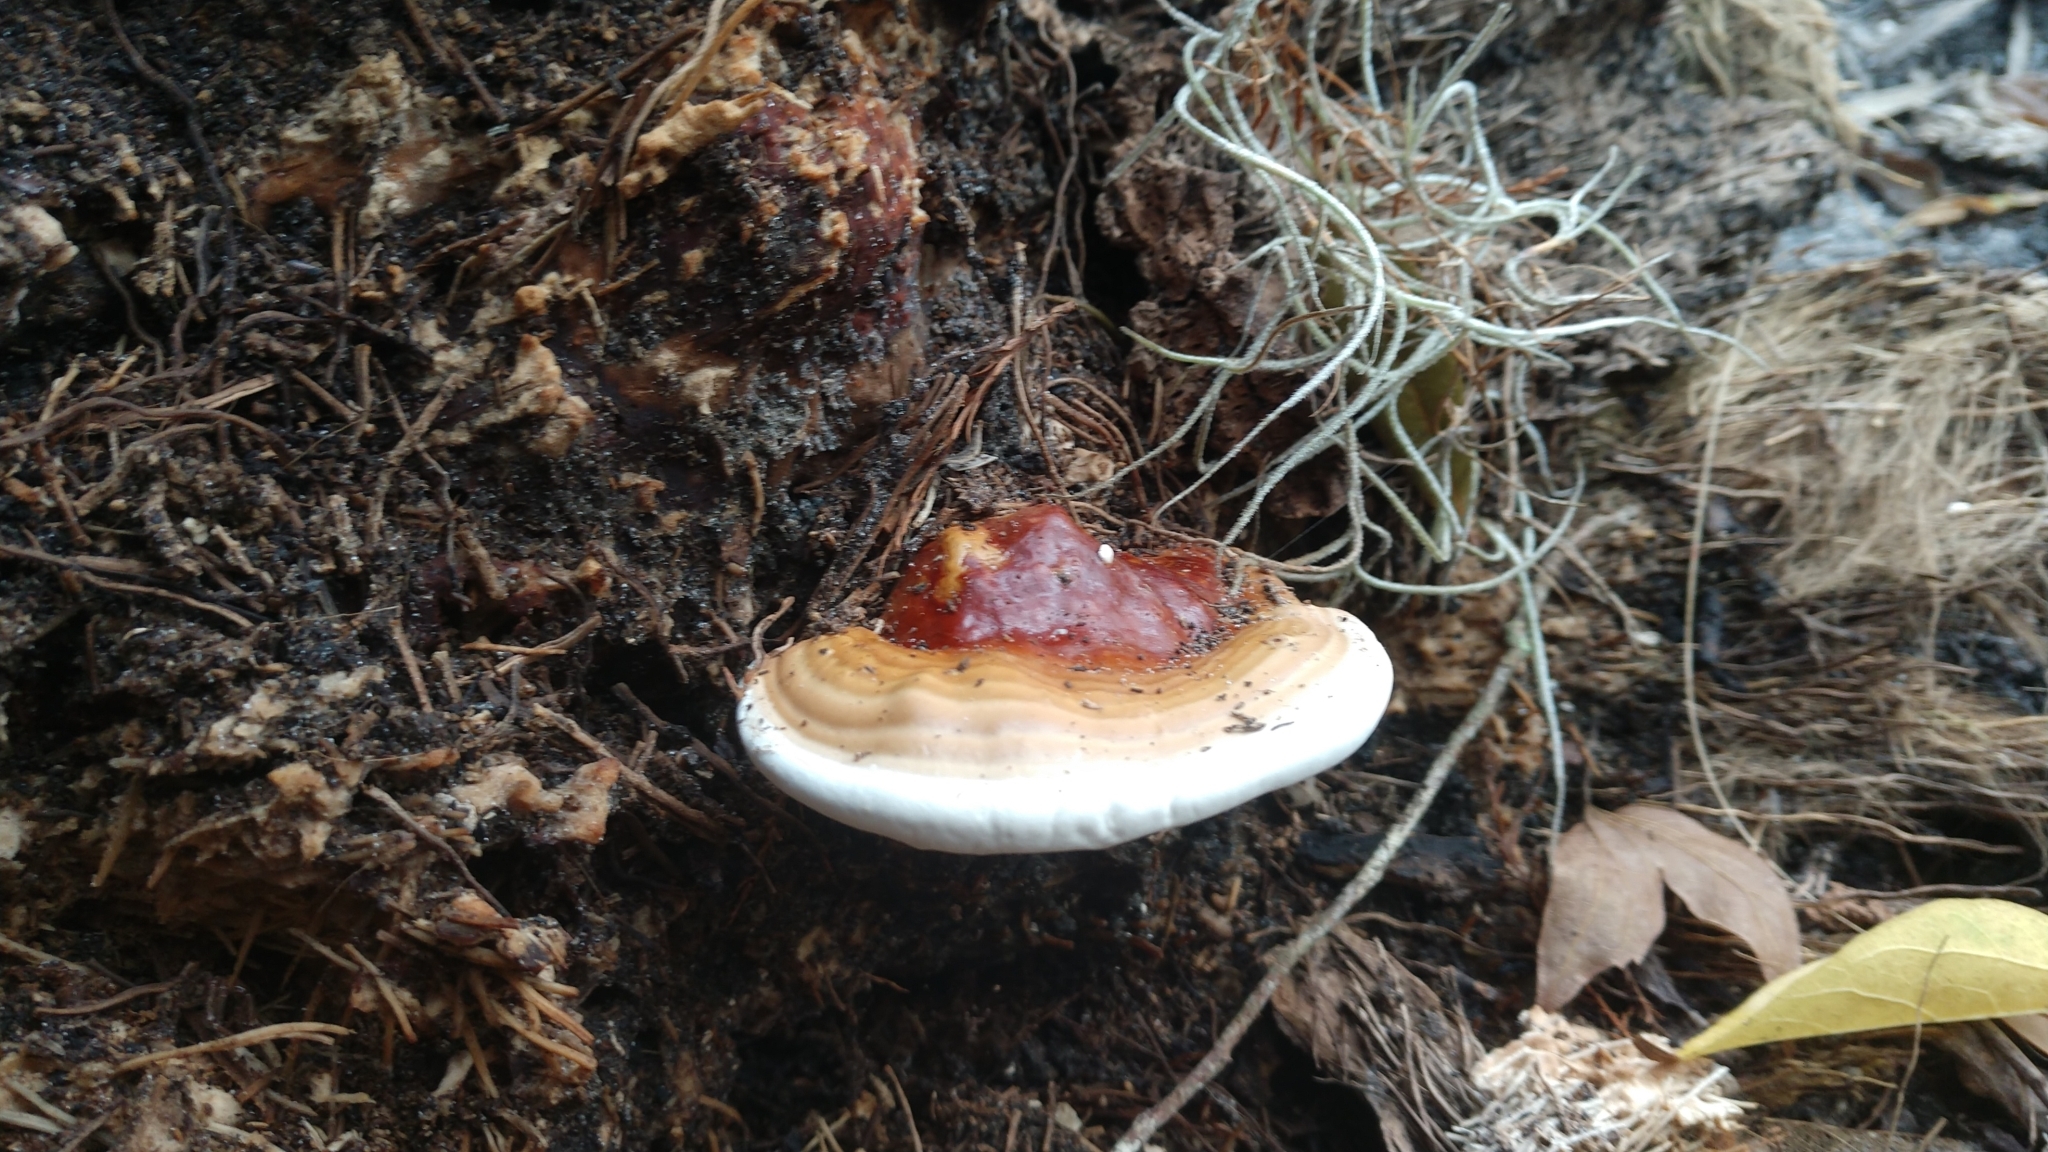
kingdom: Fungi
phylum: Basidiomycota
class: Agaricomycetes
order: Polyporales
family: Polyporaceae
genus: Ganoderma
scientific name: Ganoderma zonatum
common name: Ganoderma butt rot
